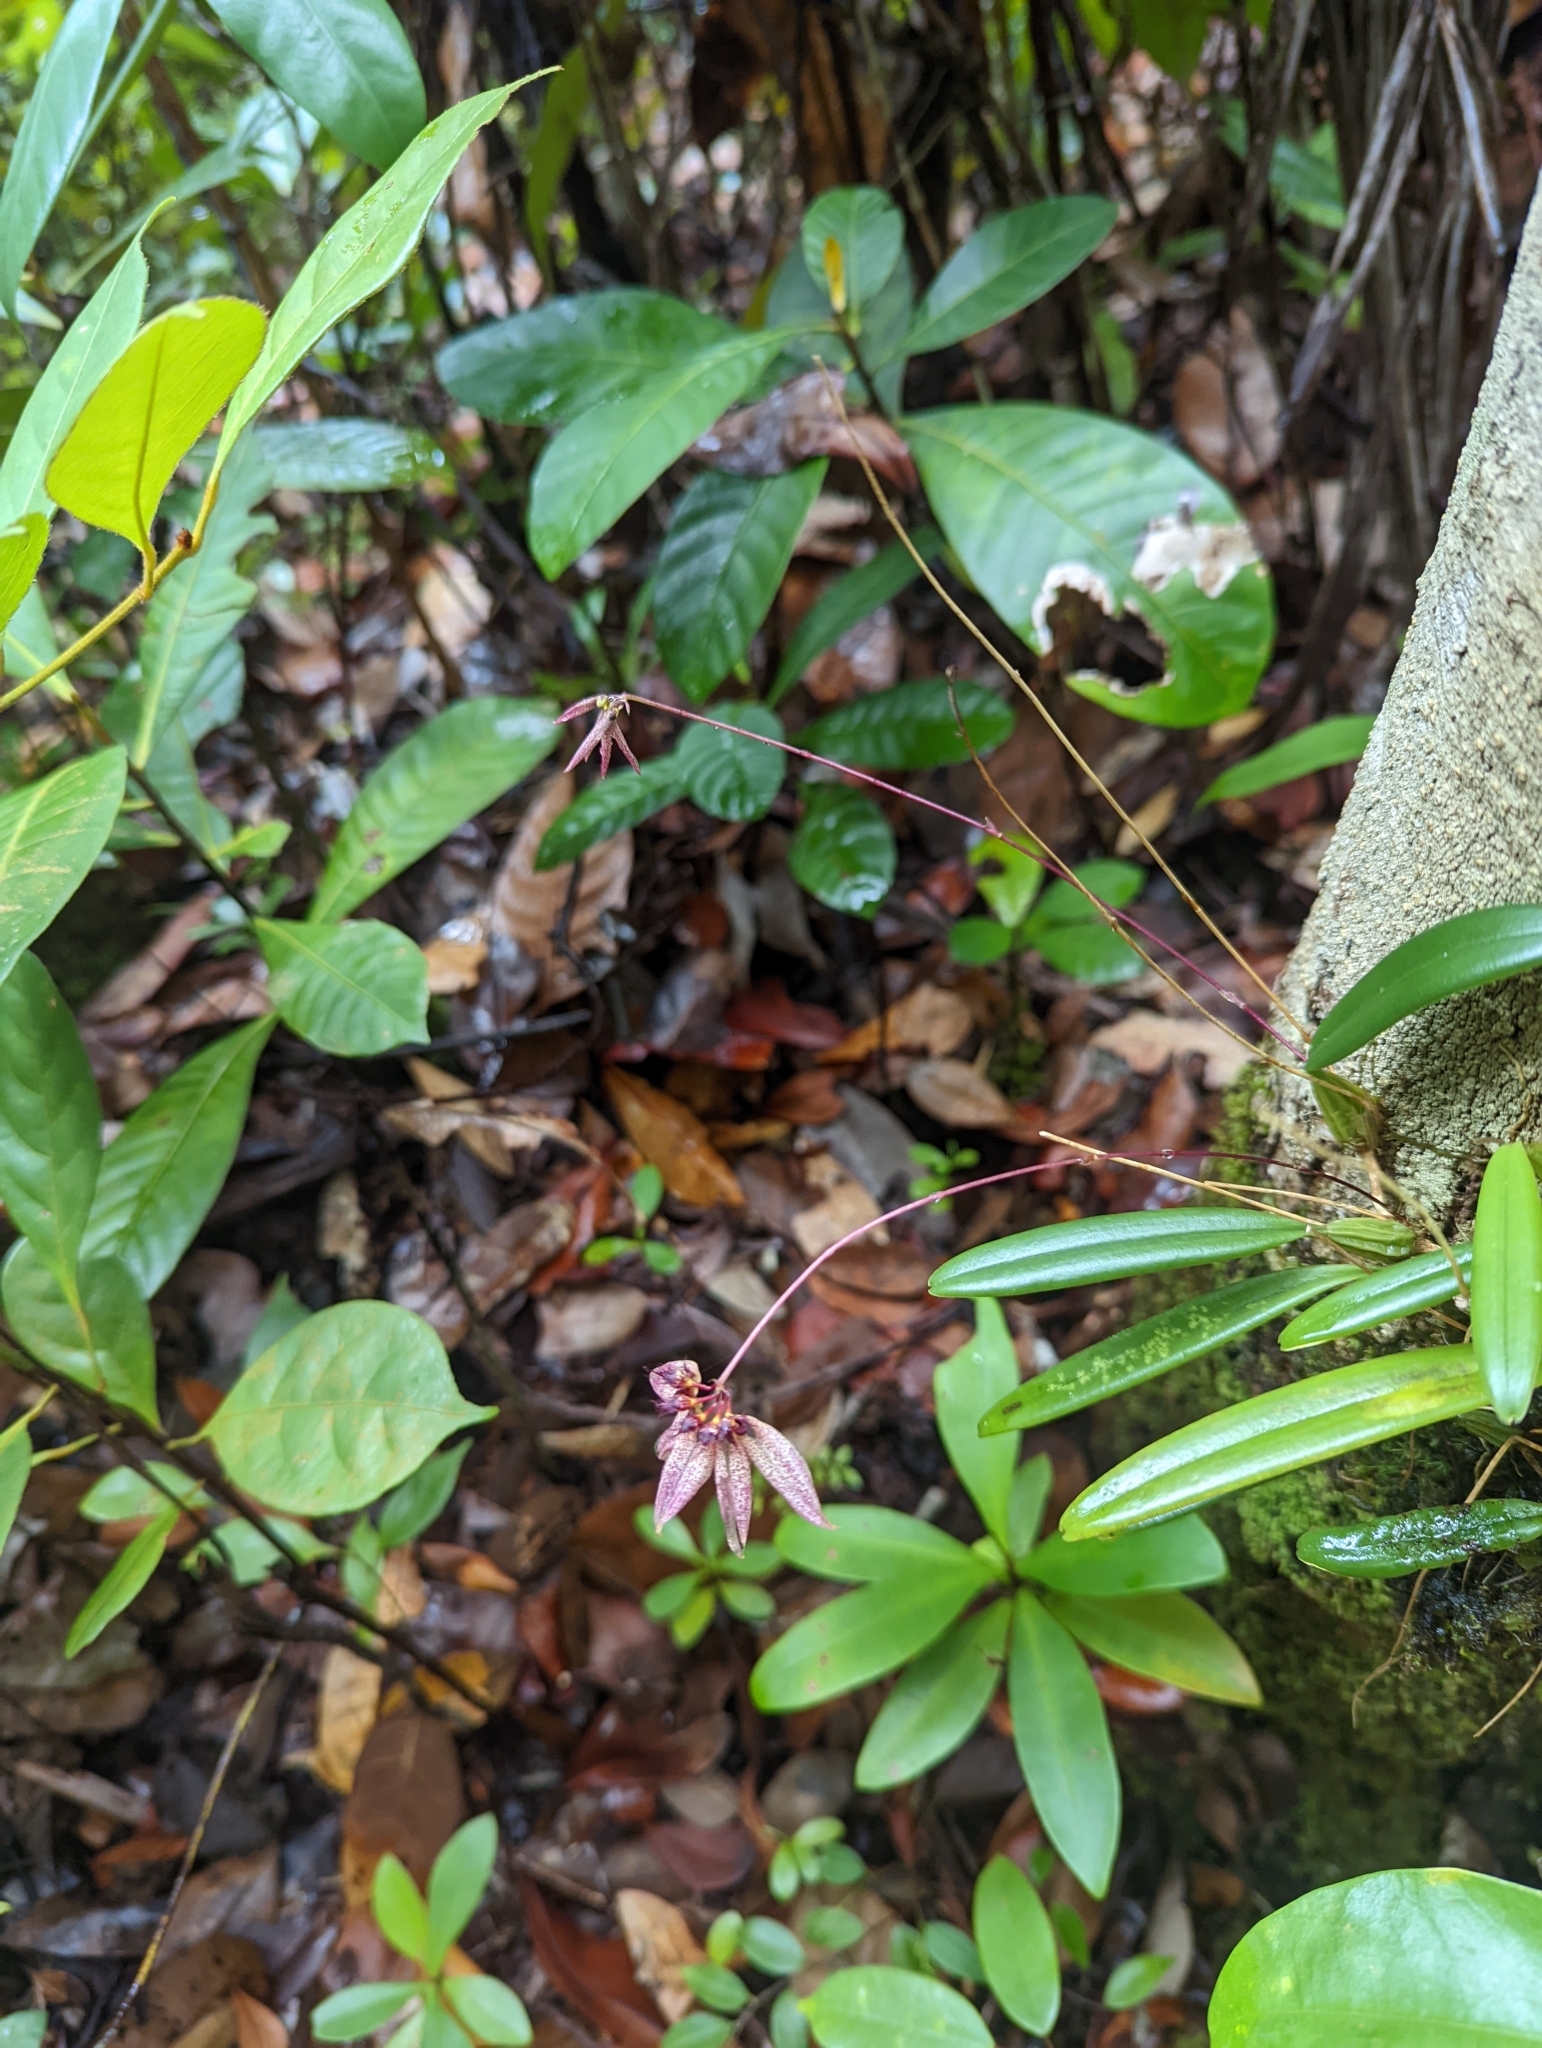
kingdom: Plantae
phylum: Tracheophyta
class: Liliopsida
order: Asparagales
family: Orchidaceae
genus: Bulbophyllum
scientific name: Bulbophyllum acuminatum
